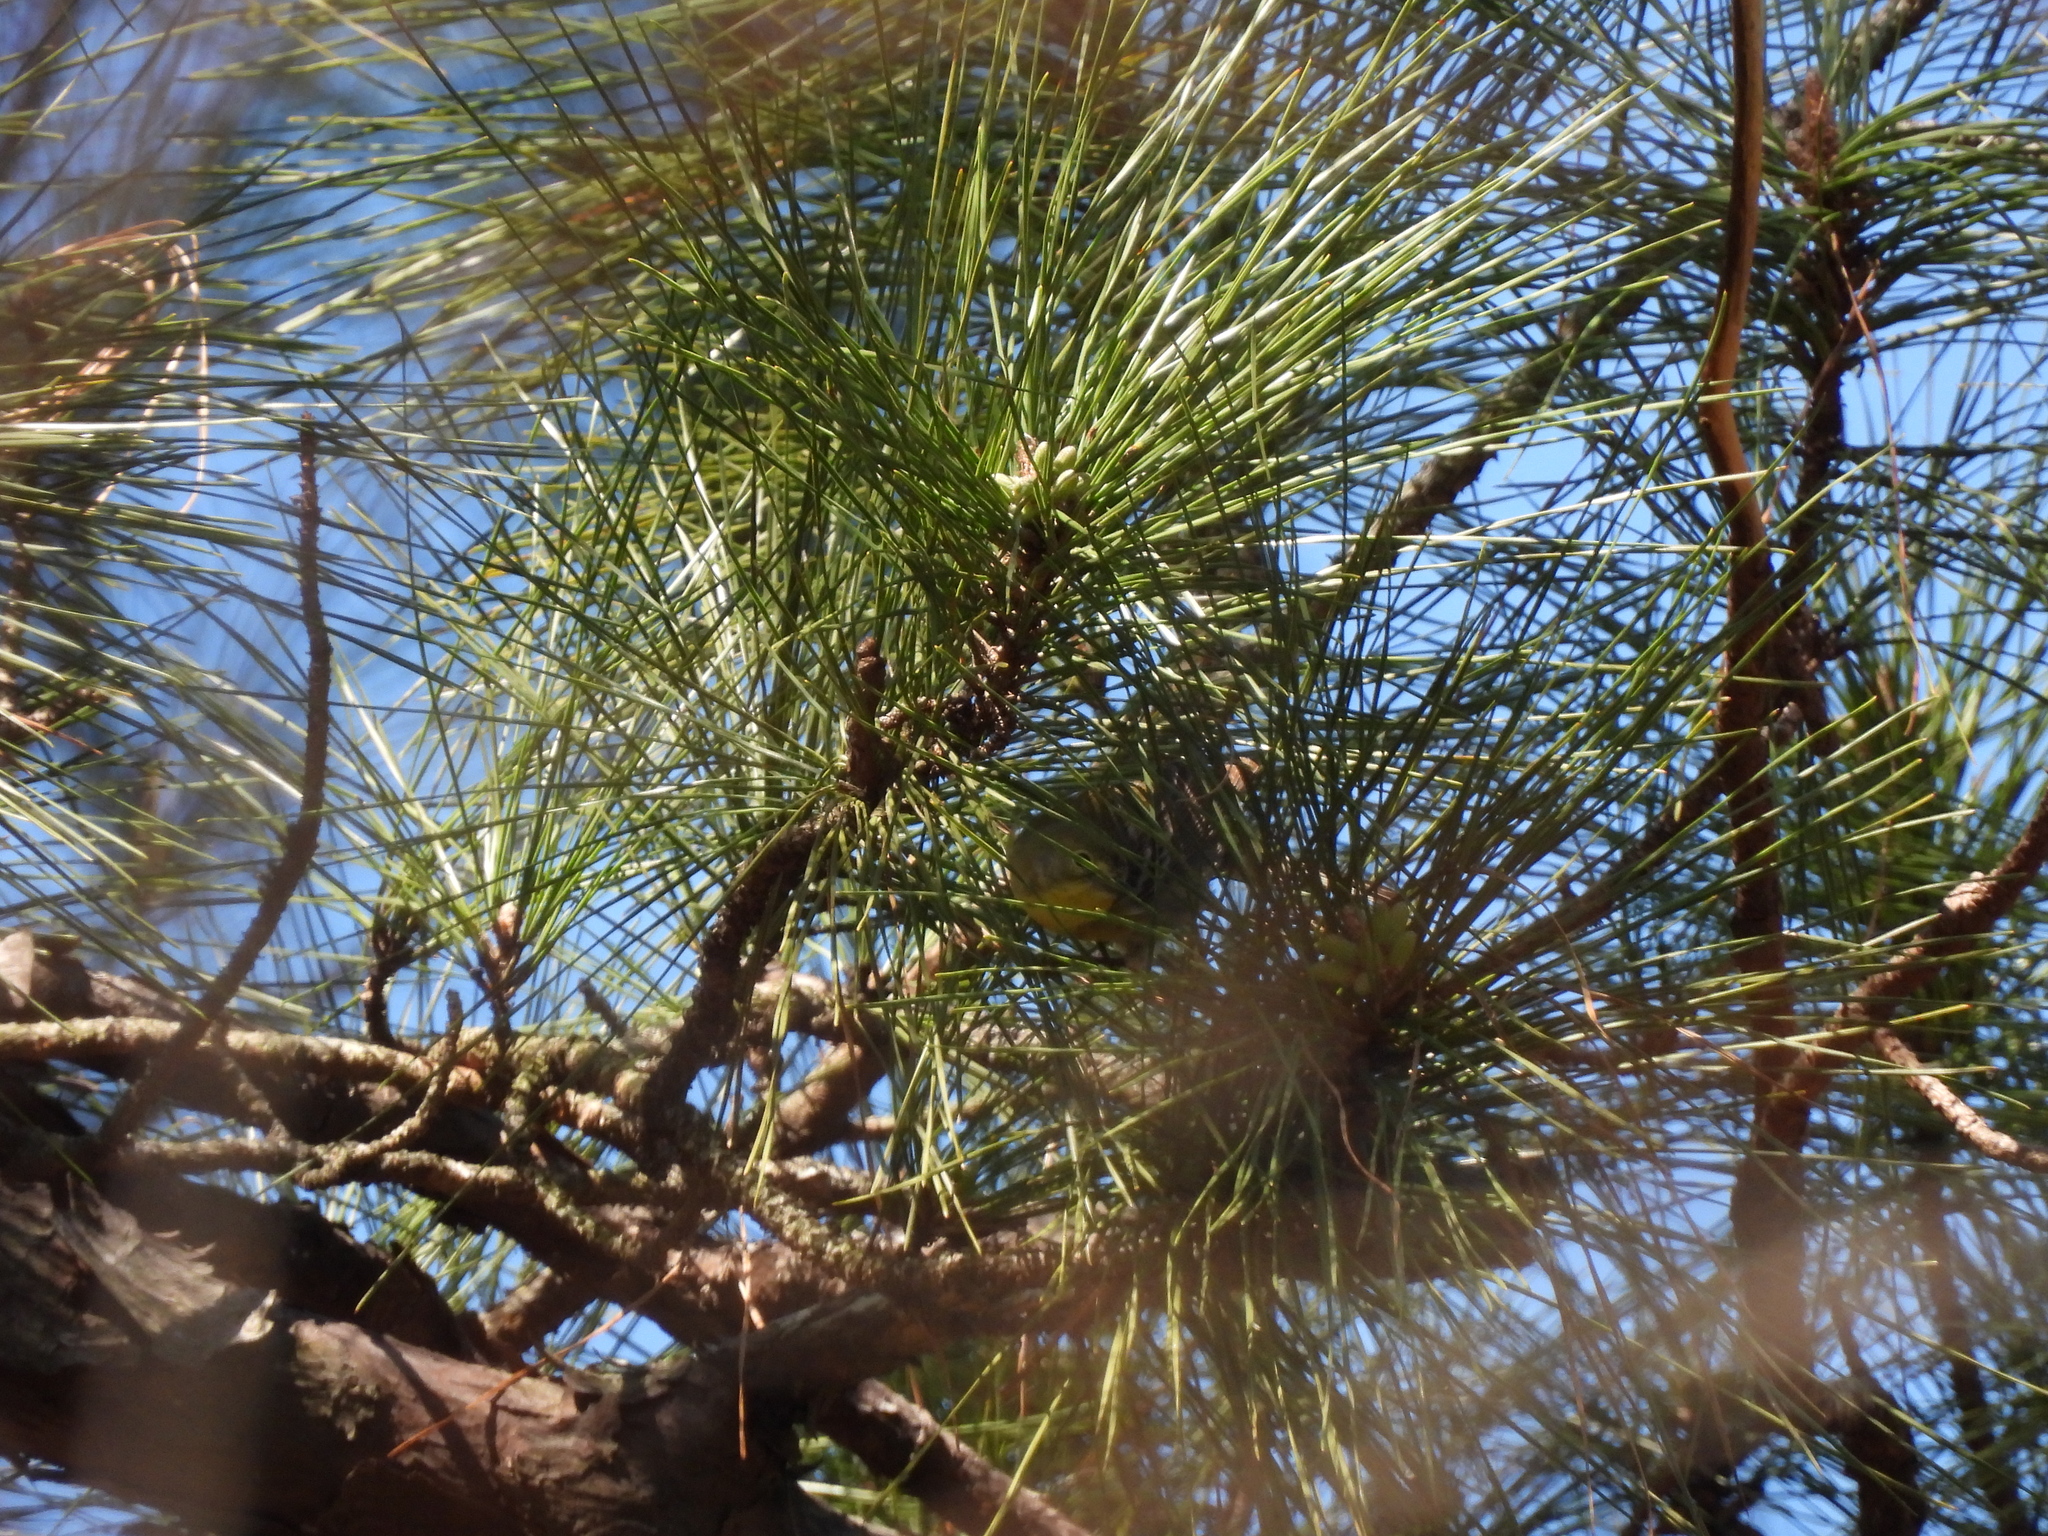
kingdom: Animalia
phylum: Chordata
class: Aves
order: Passeriformes
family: Parulidae
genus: Setophaga
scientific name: Setophaga pinus
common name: Pine warbler
